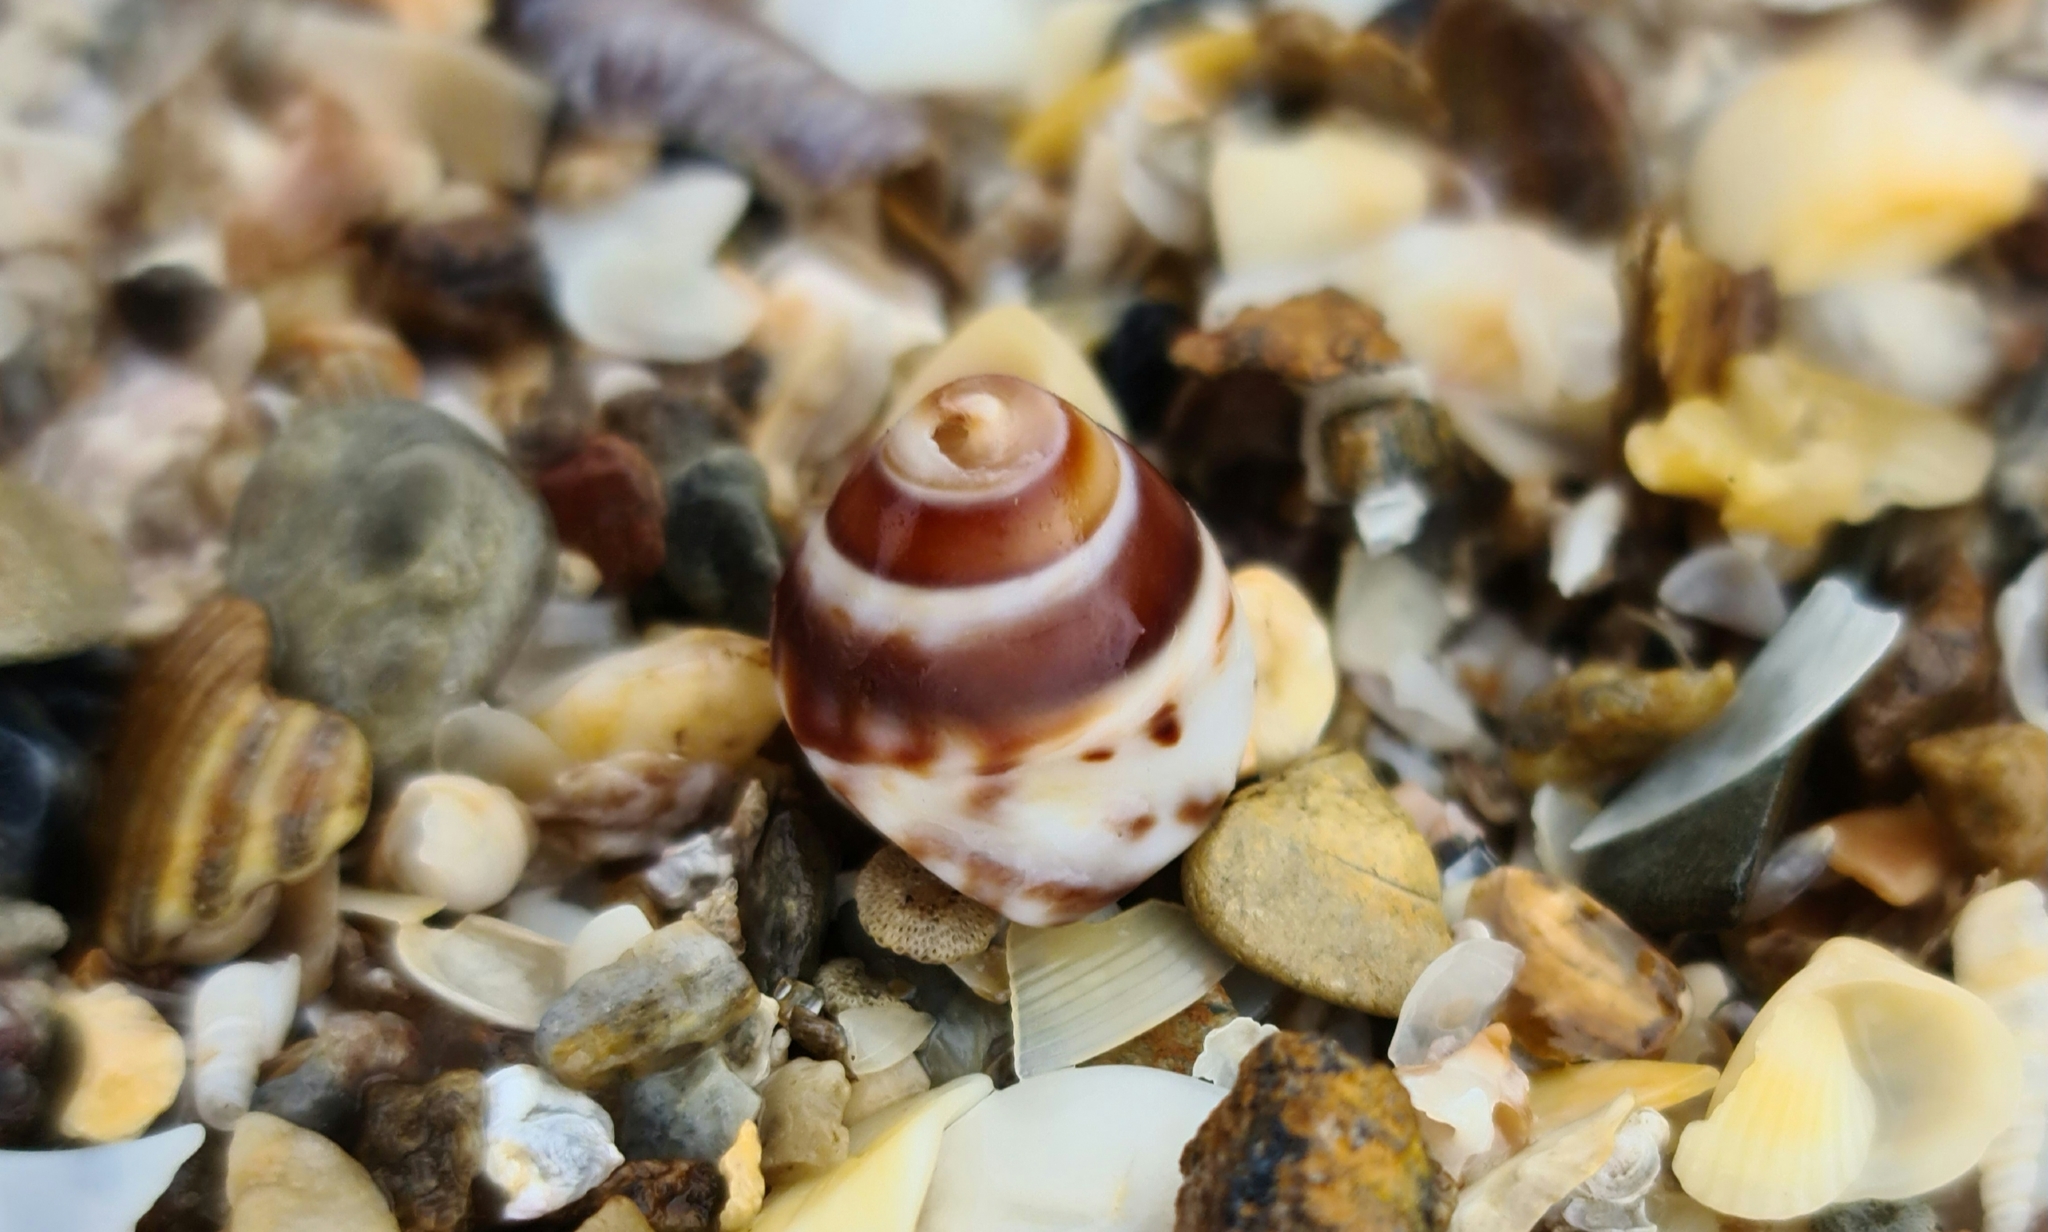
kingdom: Animalia
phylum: Mollusca
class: Gastropoda
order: Littorinimorpha
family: Littorinidae
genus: Bembicium
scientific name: Bembicium nanum
